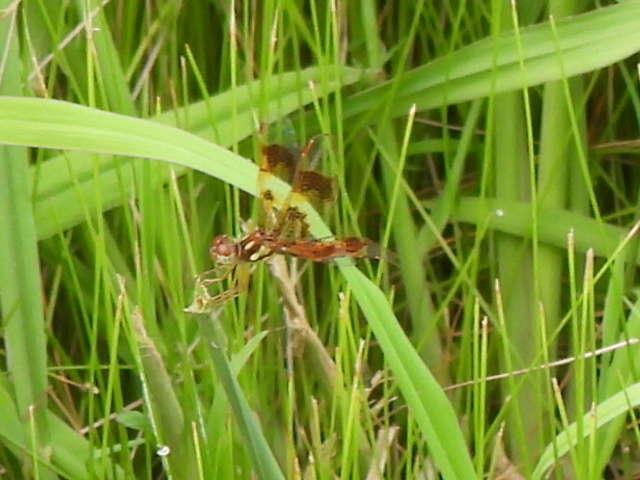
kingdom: Animalia
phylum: Arthropoda
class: Insecta
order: Odonata
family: Libellulidae
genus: Perithemis
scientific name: Perithemis tenera
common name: Eastern amberwing
